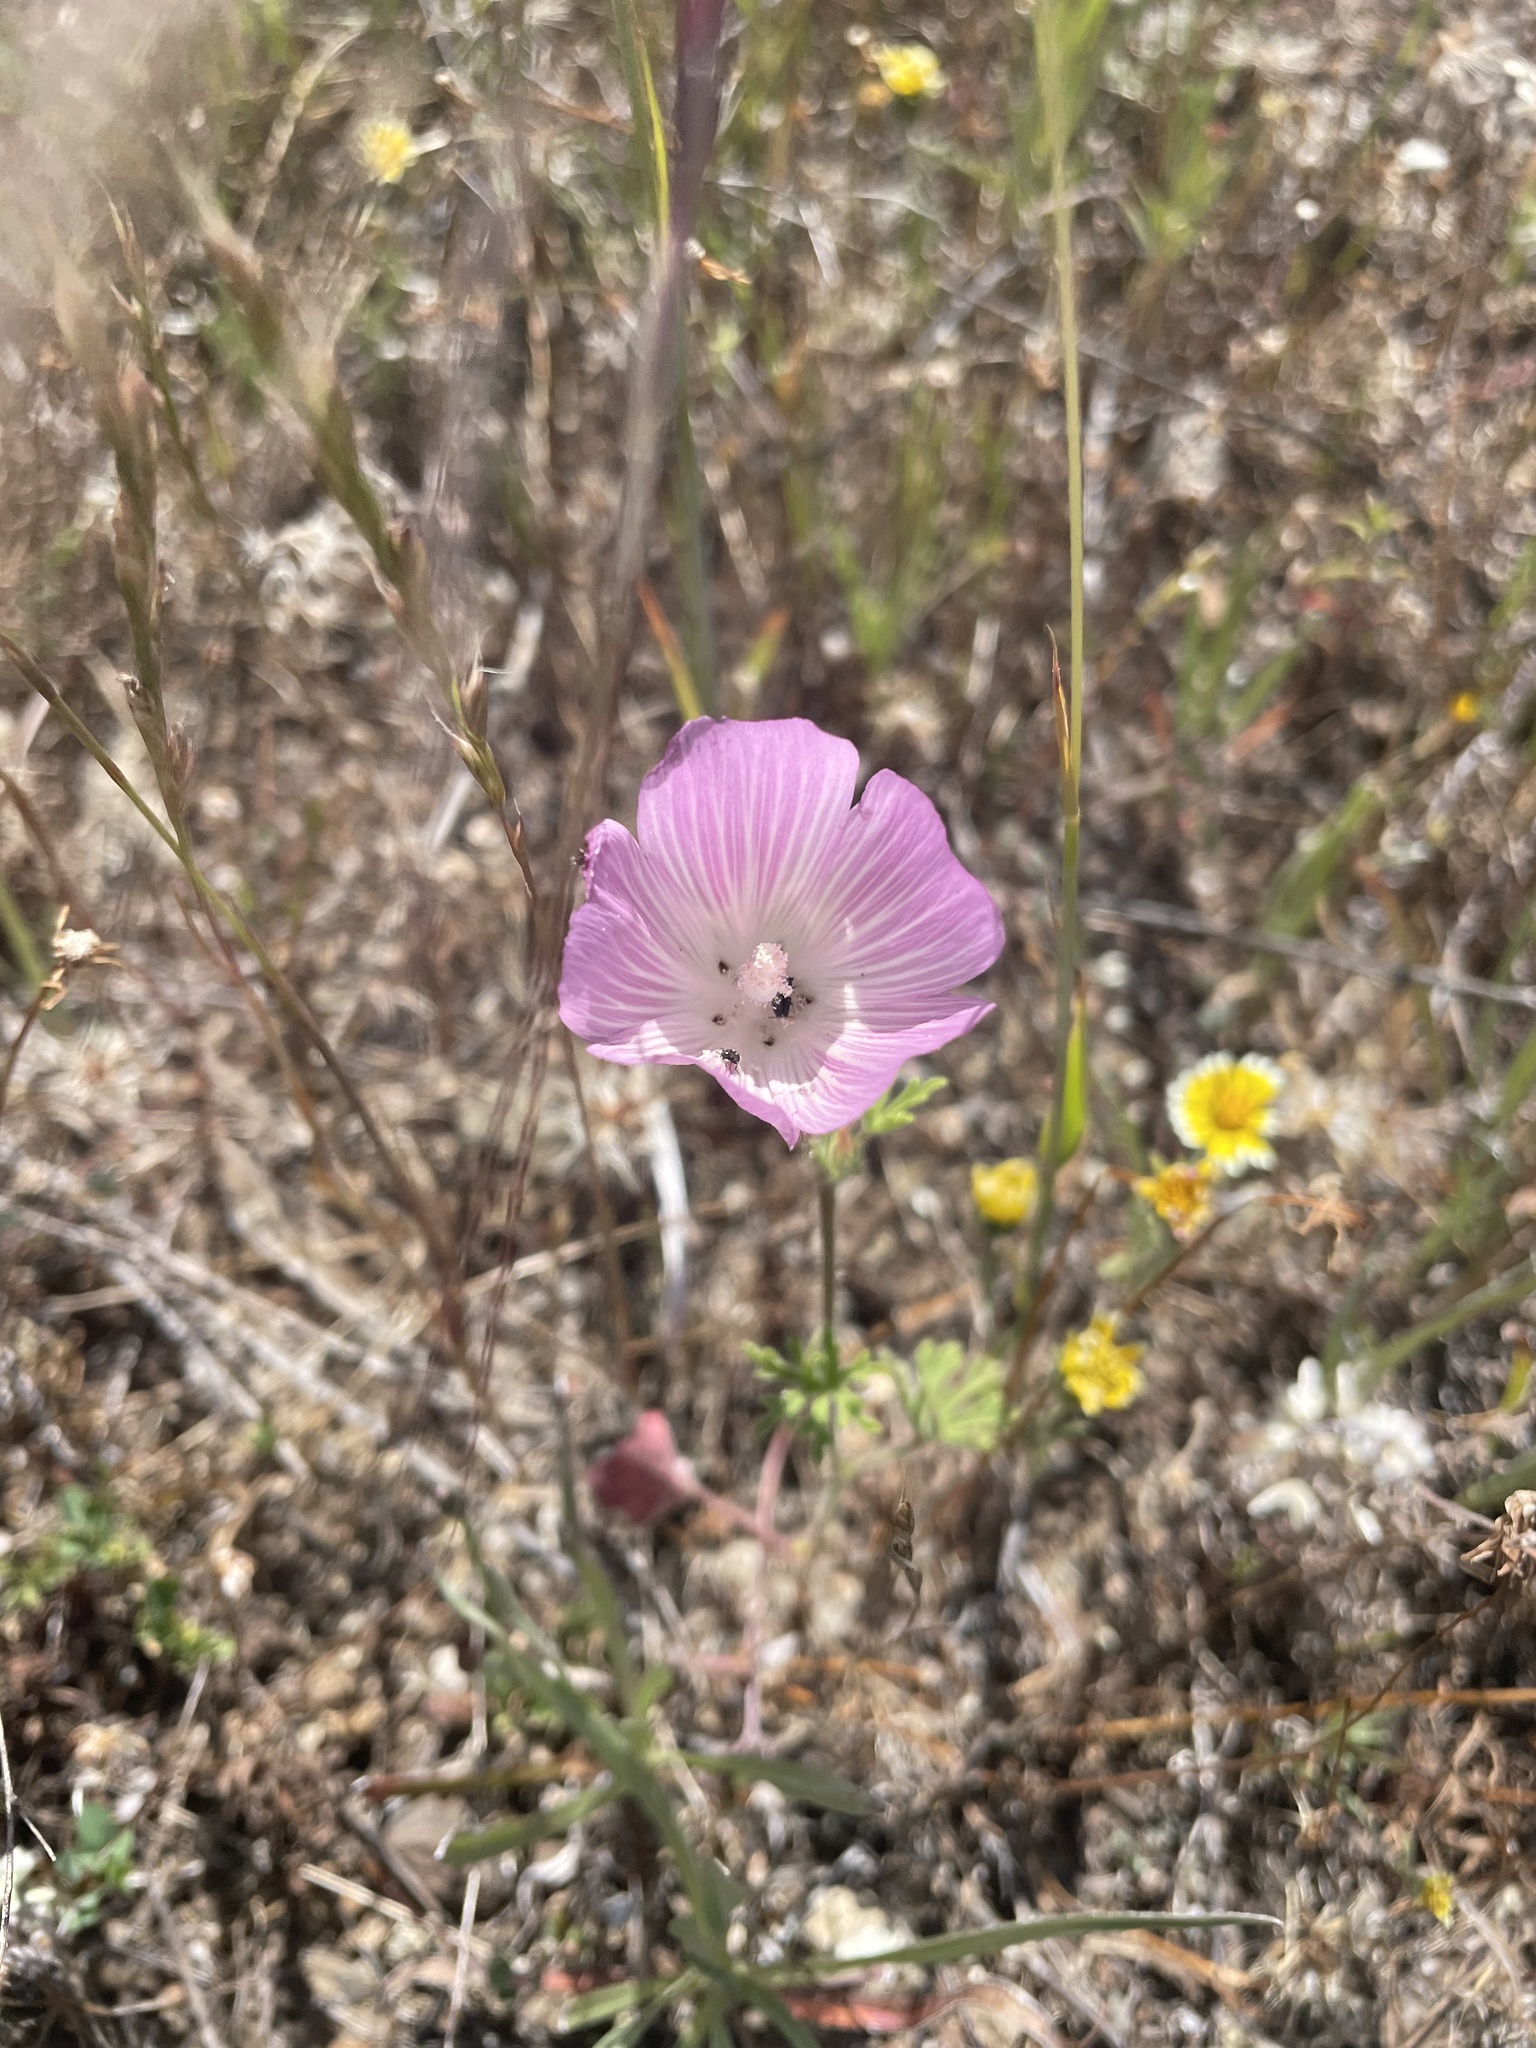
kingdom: Plantae
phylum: Tracheophyta
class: Magnoliopsida
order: Malvales
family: Malvaceae
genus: Sidalcea
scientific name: Sidalcea diploscypha
